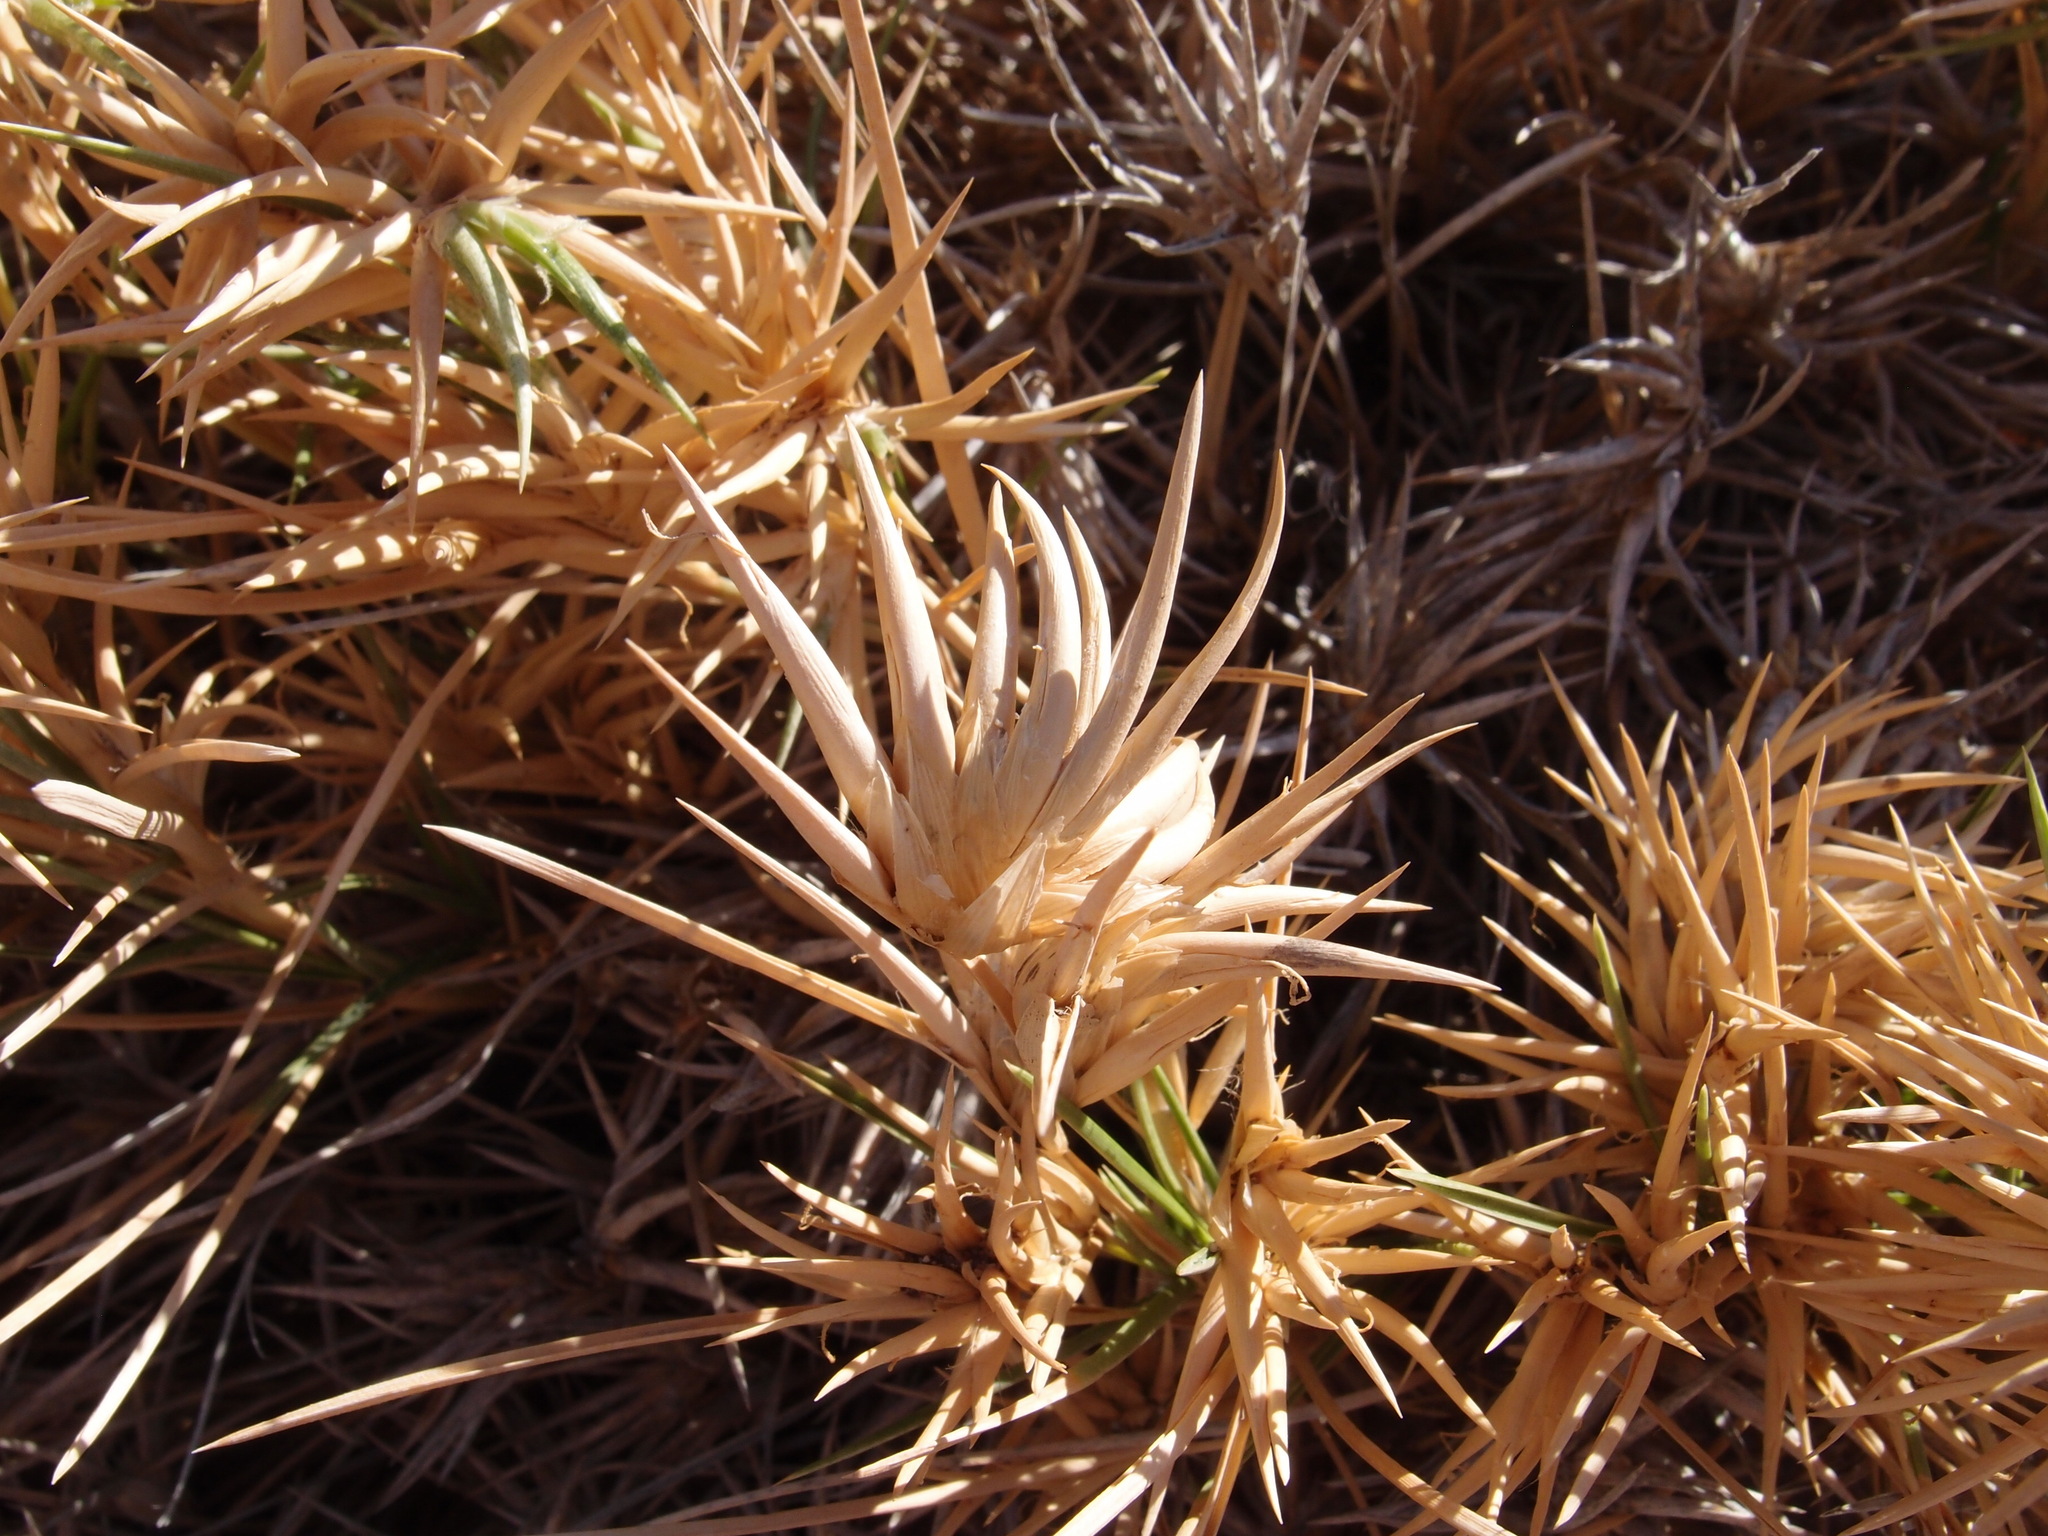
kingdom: Plantae
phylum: Tracheophyta
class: Liliopsida
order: Poales
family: Poaceae
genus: Jouvea
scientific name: Jouvea pilosa
